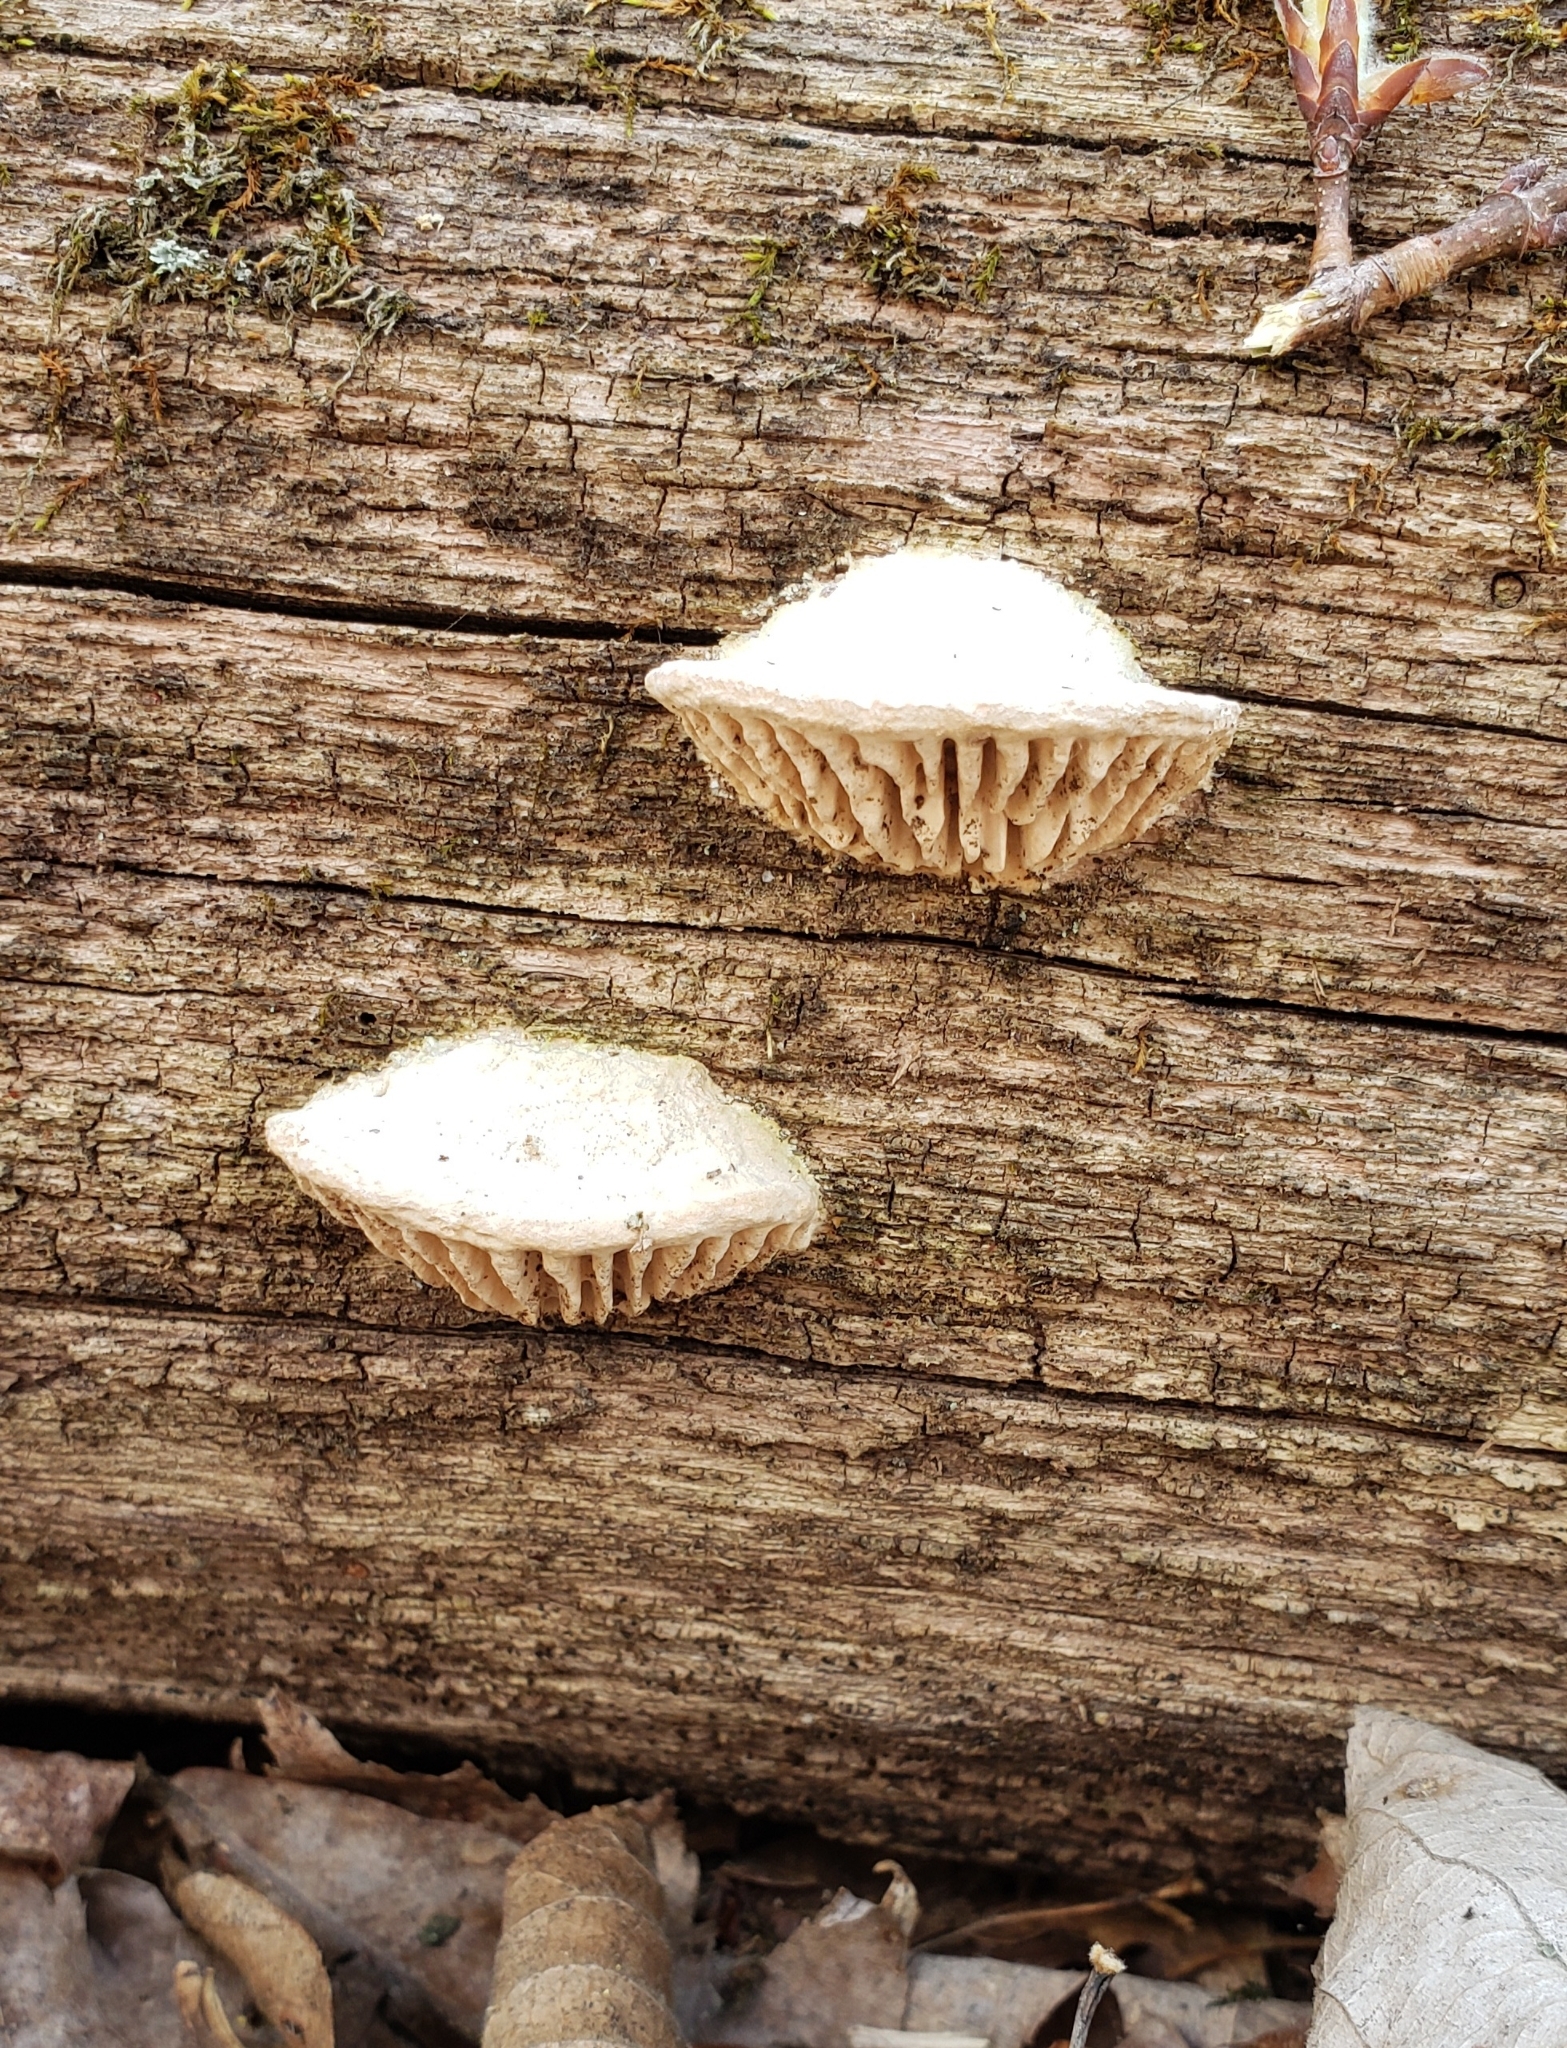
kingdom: Fungi
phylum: Basidiomycota
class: Agaricomycetes
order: Polyporales
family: Fomitopsidaceae
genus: Fomitopsis
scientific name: Fomitopsis
